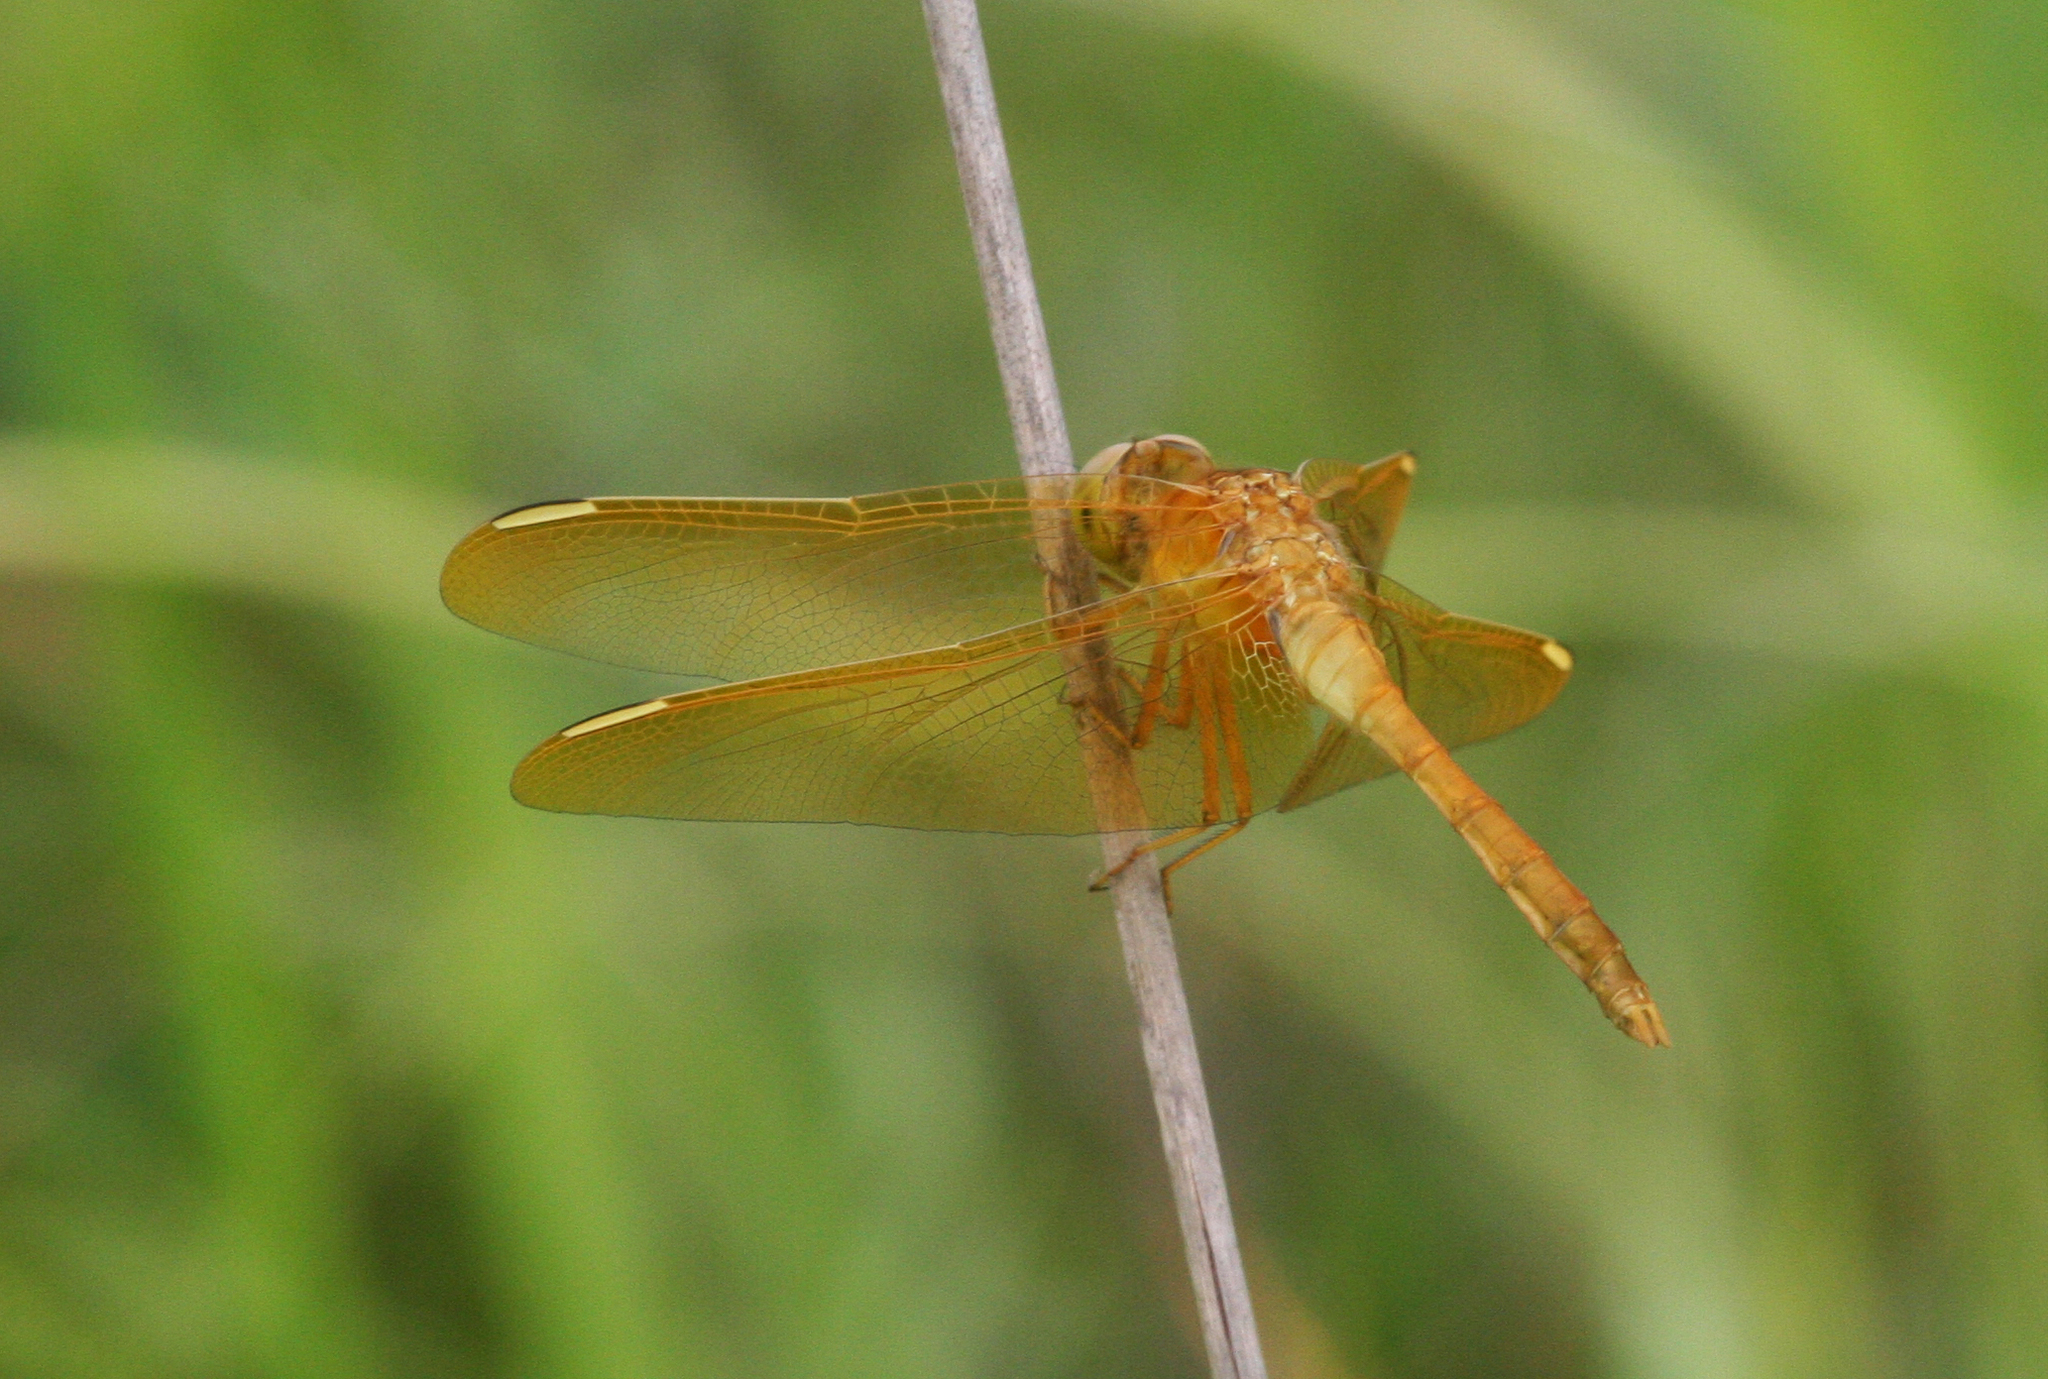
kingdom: Animalia
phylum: Arthropoda
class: Insecta
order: Odonata
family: Libellulidae
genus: Sympetrum
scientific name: Sympetrum uniforme
